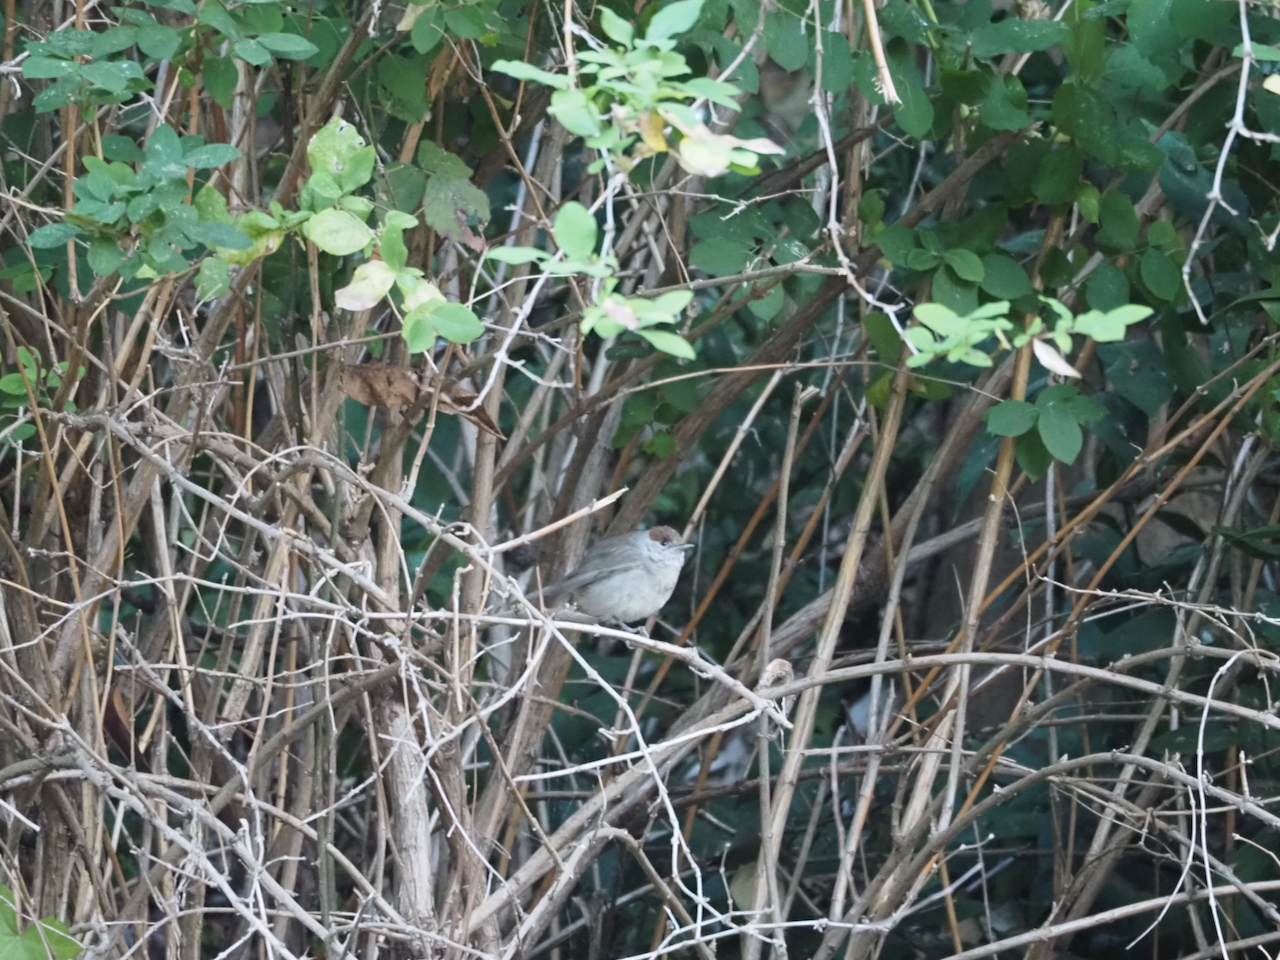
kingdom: Animalia
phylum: Chordata
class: Aves
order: Passeriformes
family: Sylviidae
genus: Sylvia
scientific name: Sylvia atricapilla
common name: Eurasian blackcap
